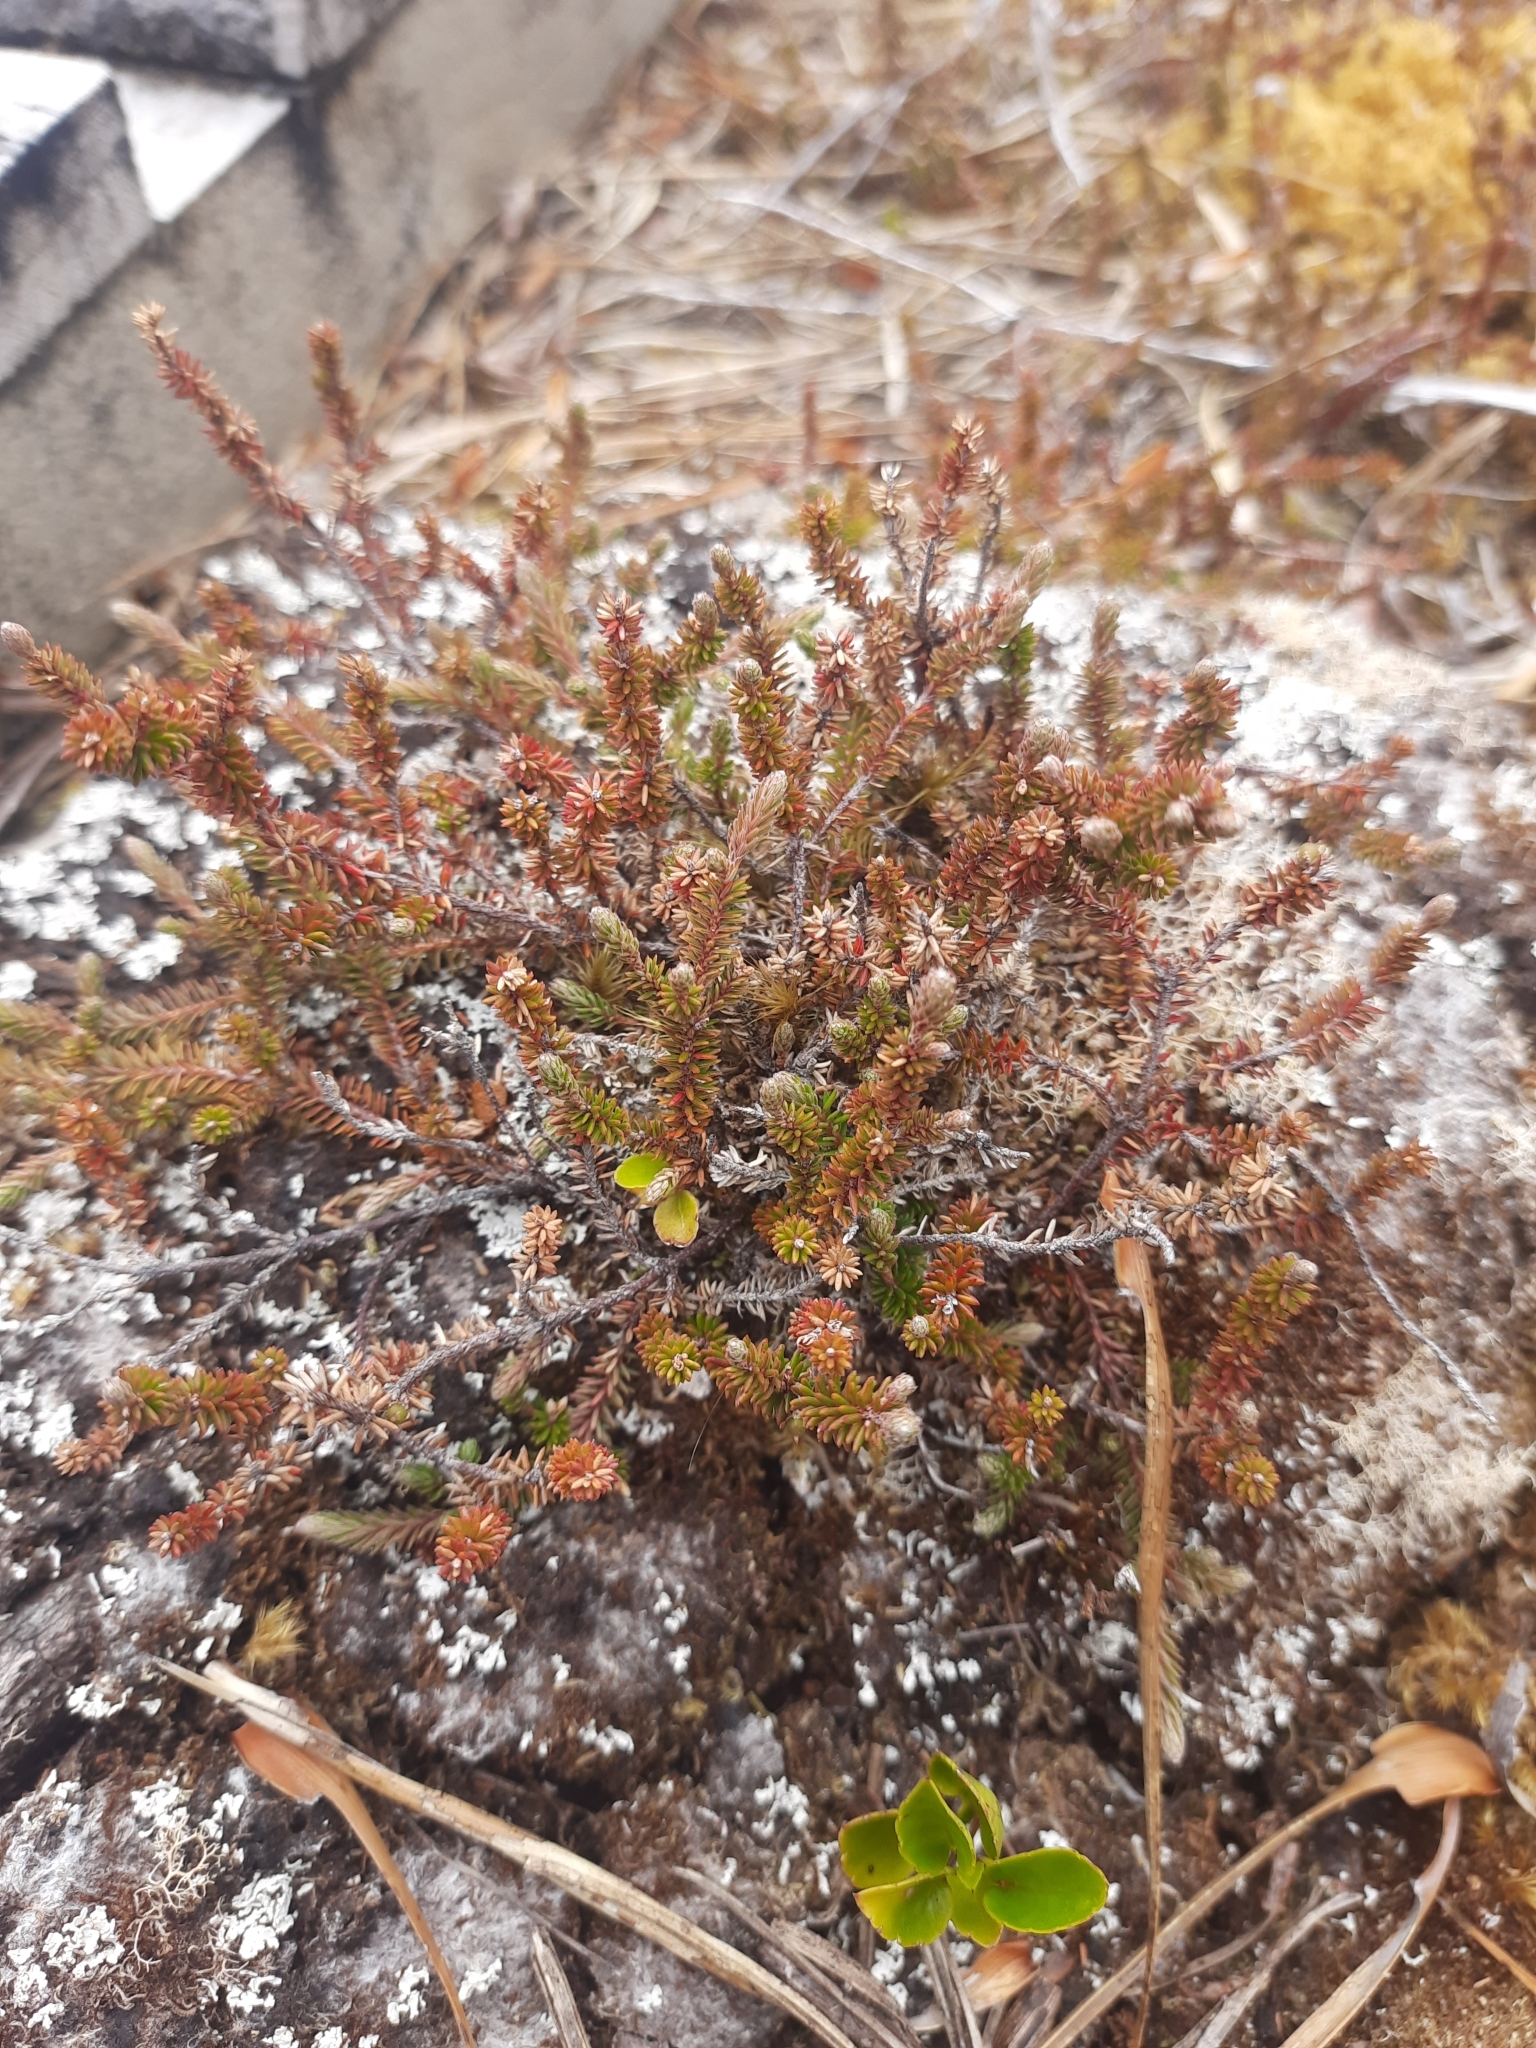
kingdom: Plantae
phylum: Tracheophyta
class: Magnoliopsida
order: Ericales
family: Ericaceae
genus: Androstoma
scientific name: Androstoma empetrifolia
